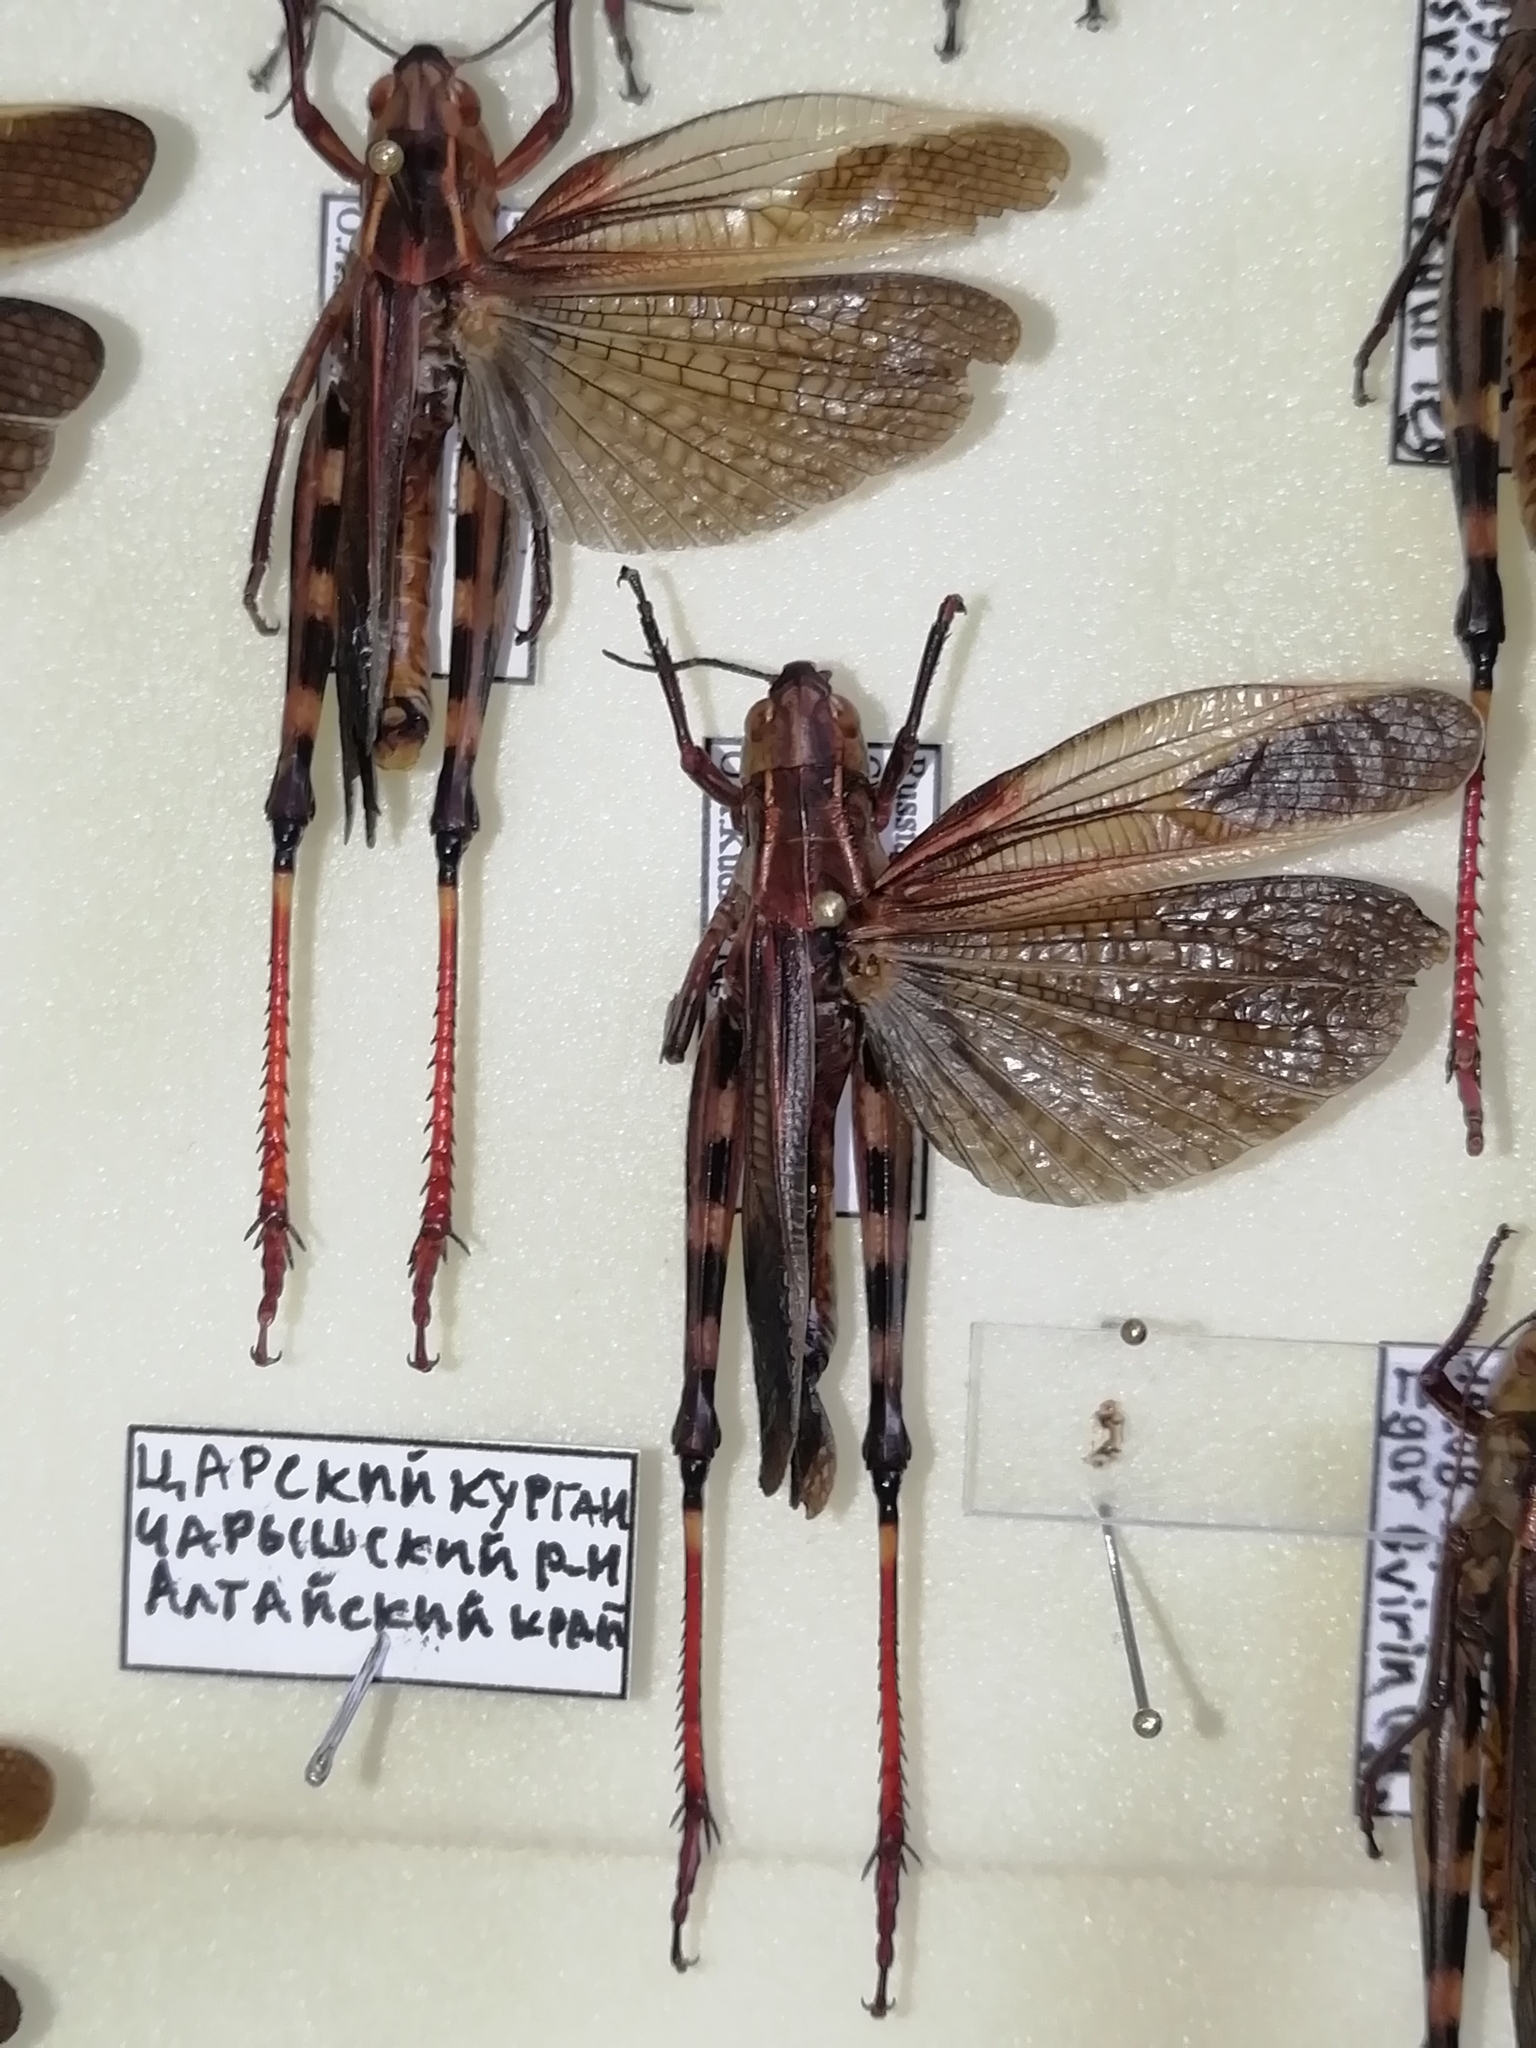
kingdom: Animalia
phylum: Arthropoda
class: Insecta
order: Orthoptera
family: Acrididae
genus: Arcyptera
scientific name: Arcyptera fusca
